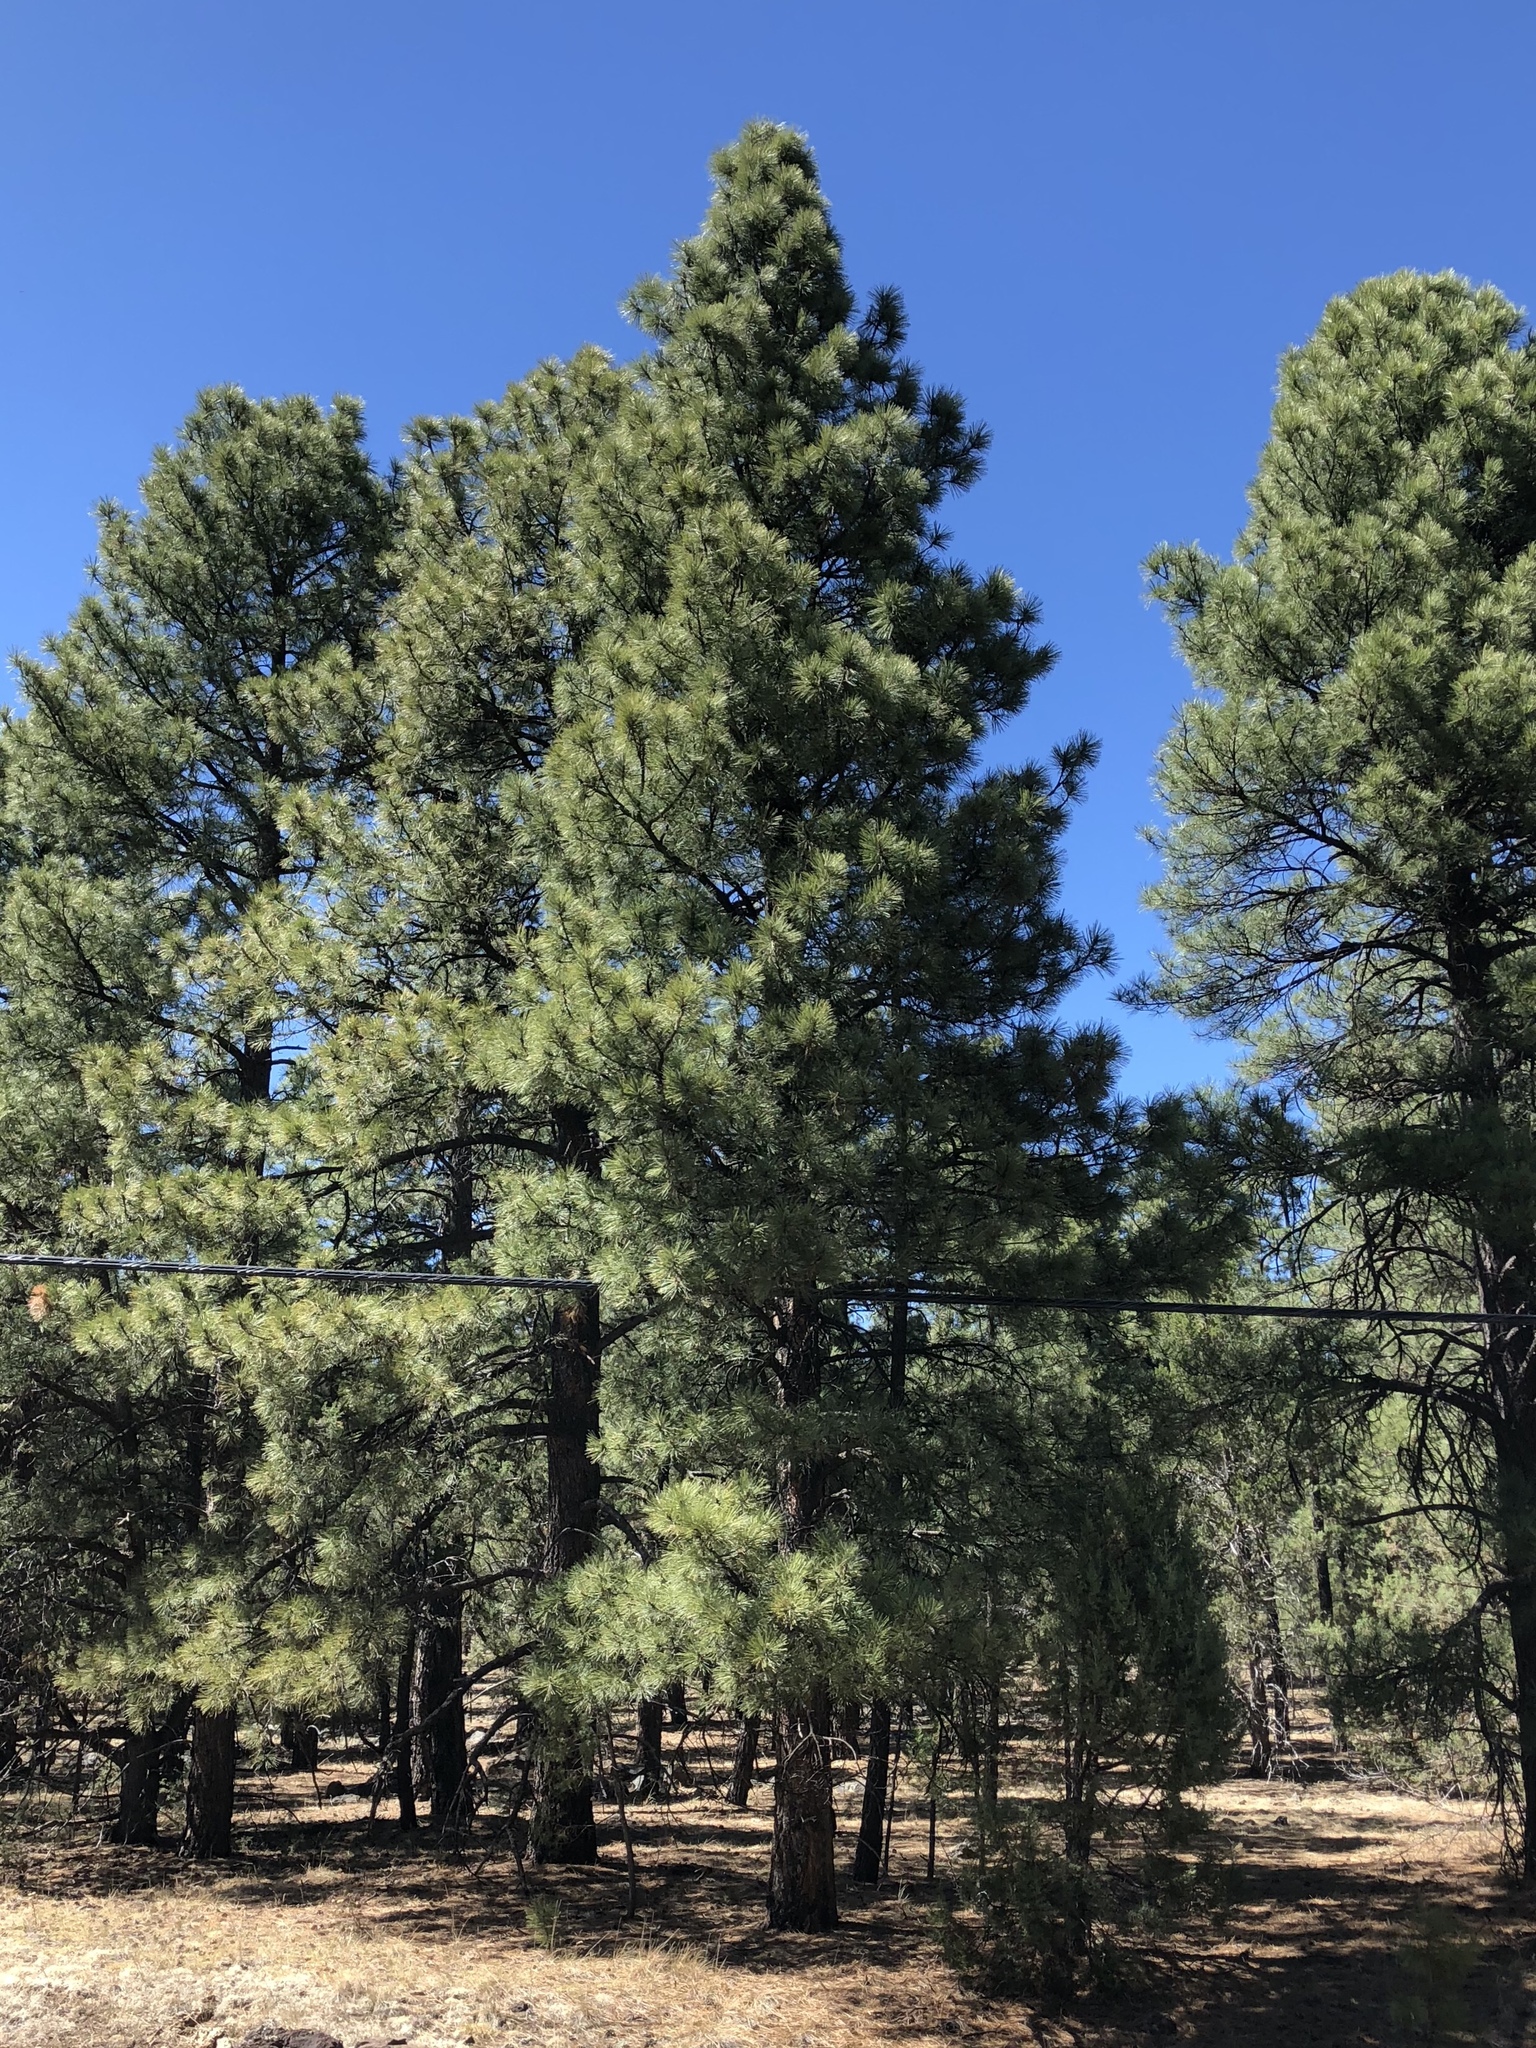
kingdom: Plantae
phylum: Tracheophyta
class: Pinopsida
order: Pinales
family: Pinaceae
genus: Pinus
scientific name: Pinus ponderosa
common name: Western yellow-pine
